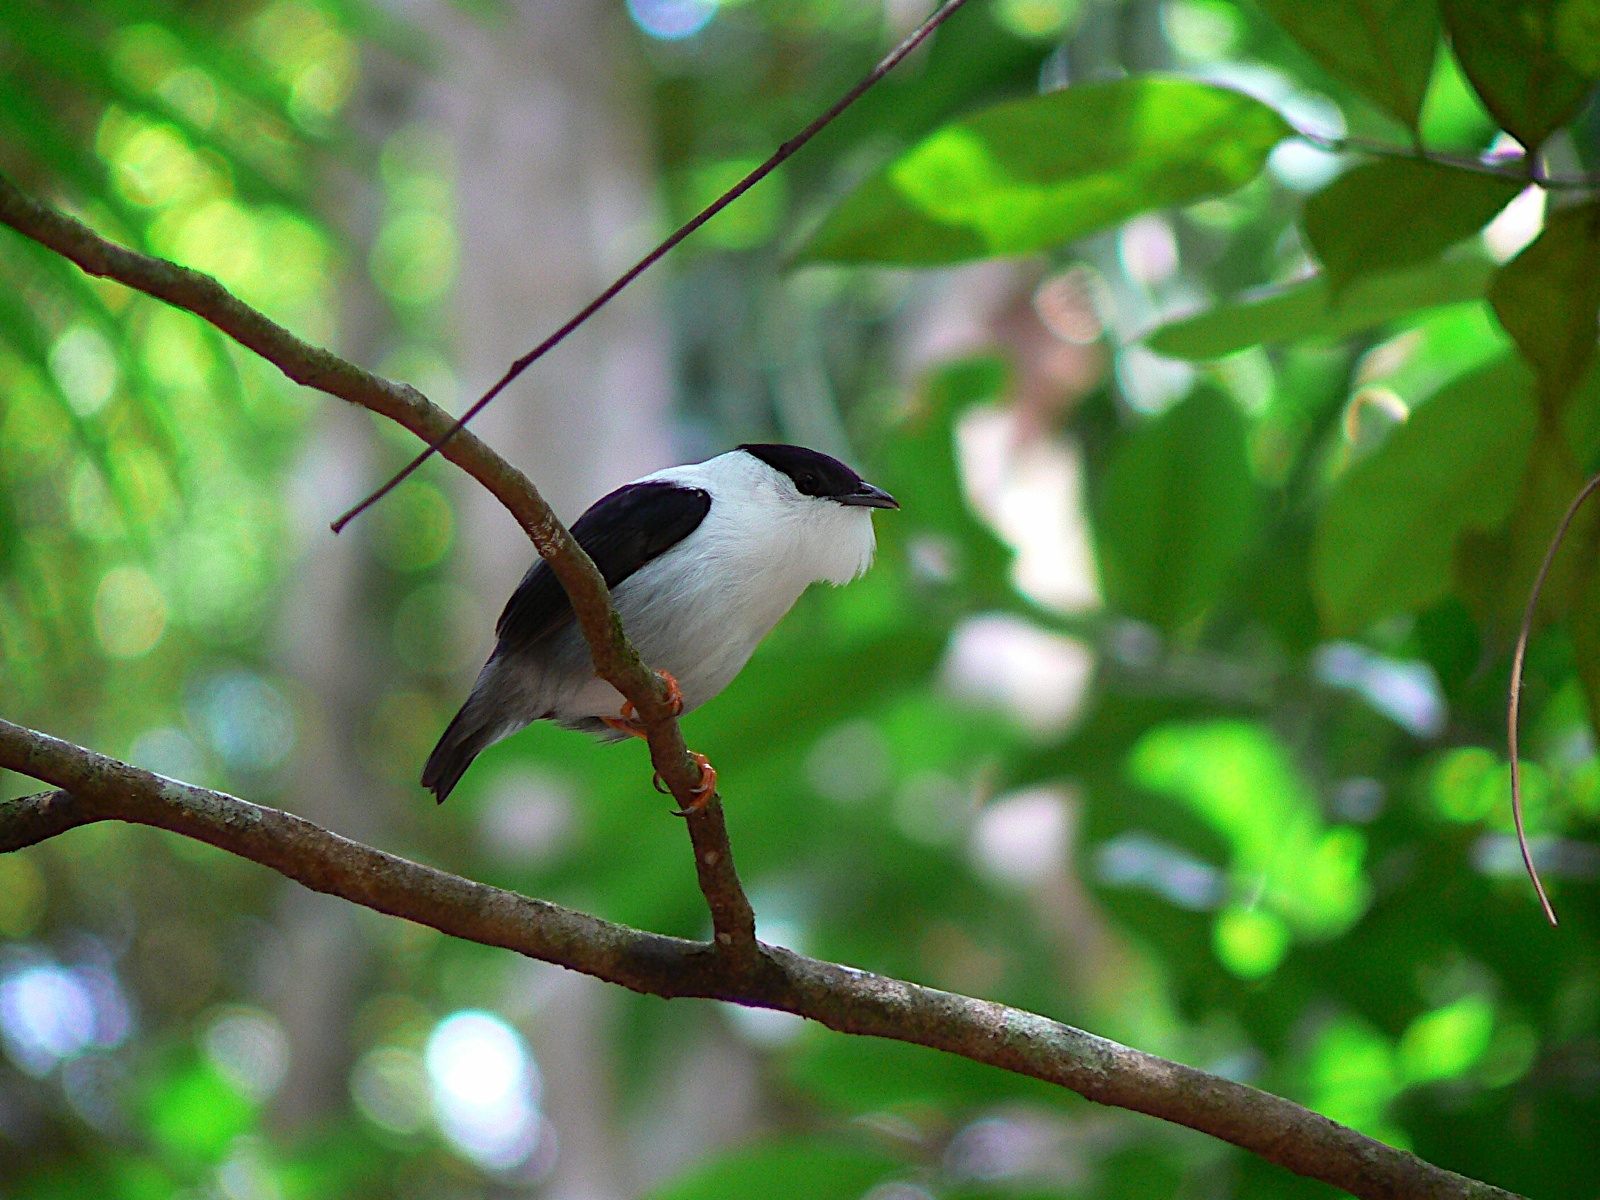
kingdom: Animalia
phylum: Chordata
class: Aves
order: Passeriformes
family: Pipridae
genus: Manacus
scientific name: Manacus manacus
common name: White-bearded manakin
